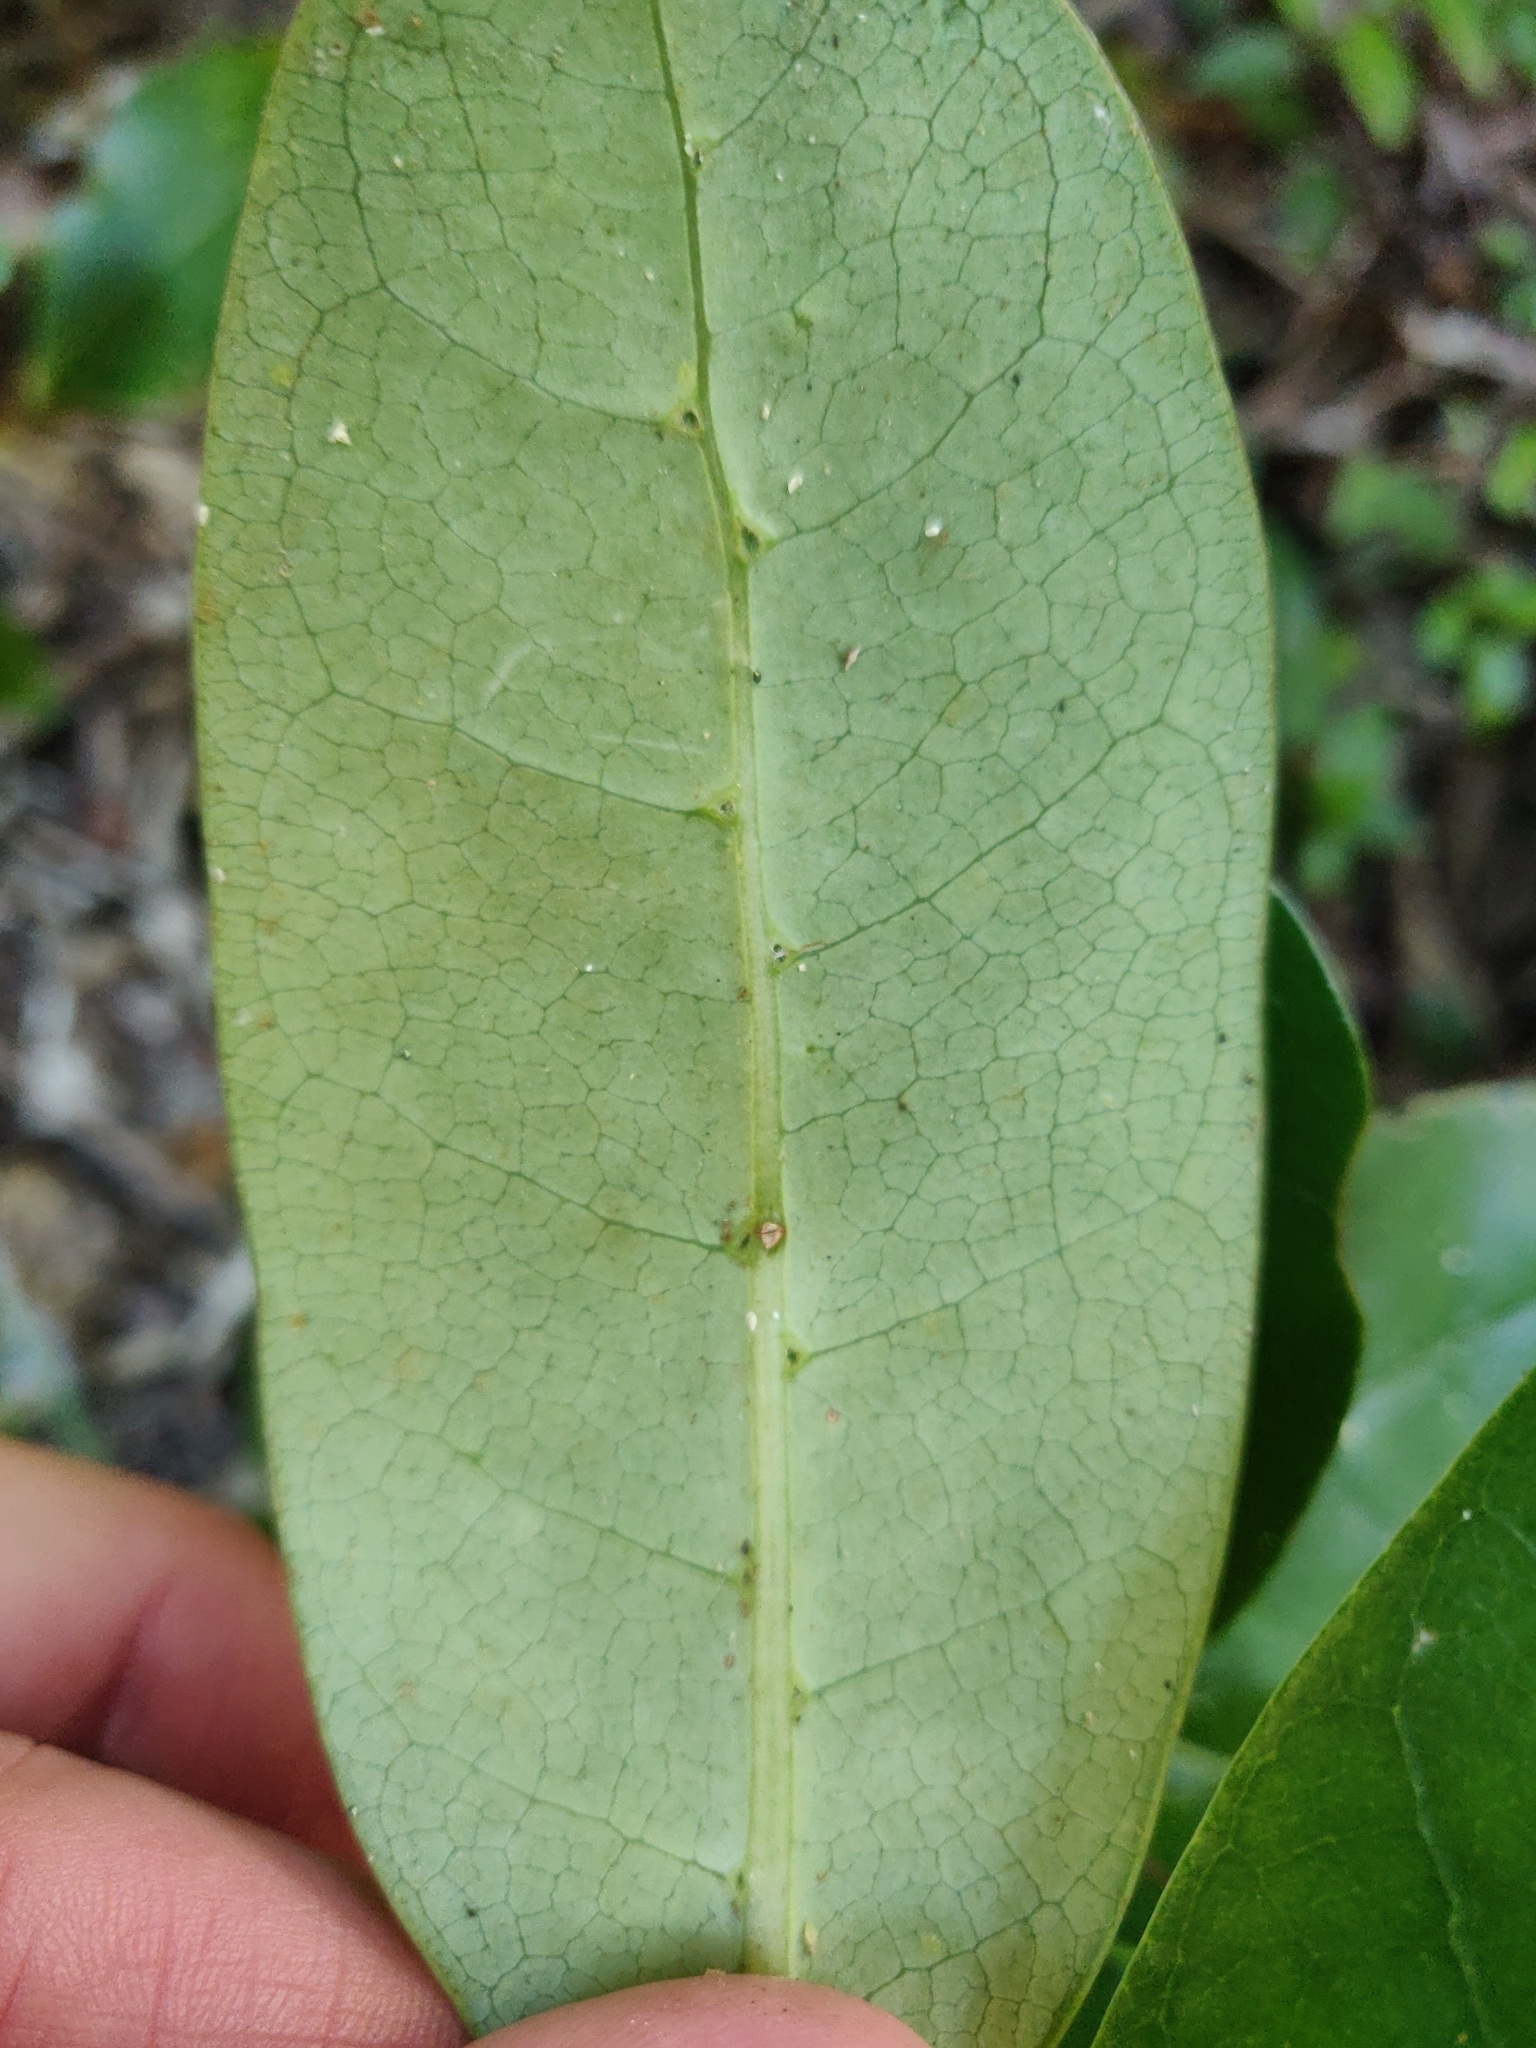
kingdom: Plantae
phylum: Tracheophyta
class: Magnoliopsida
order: Gentianales
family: Rubiaceae
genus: Coprosma
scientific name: Coprosma lucida
